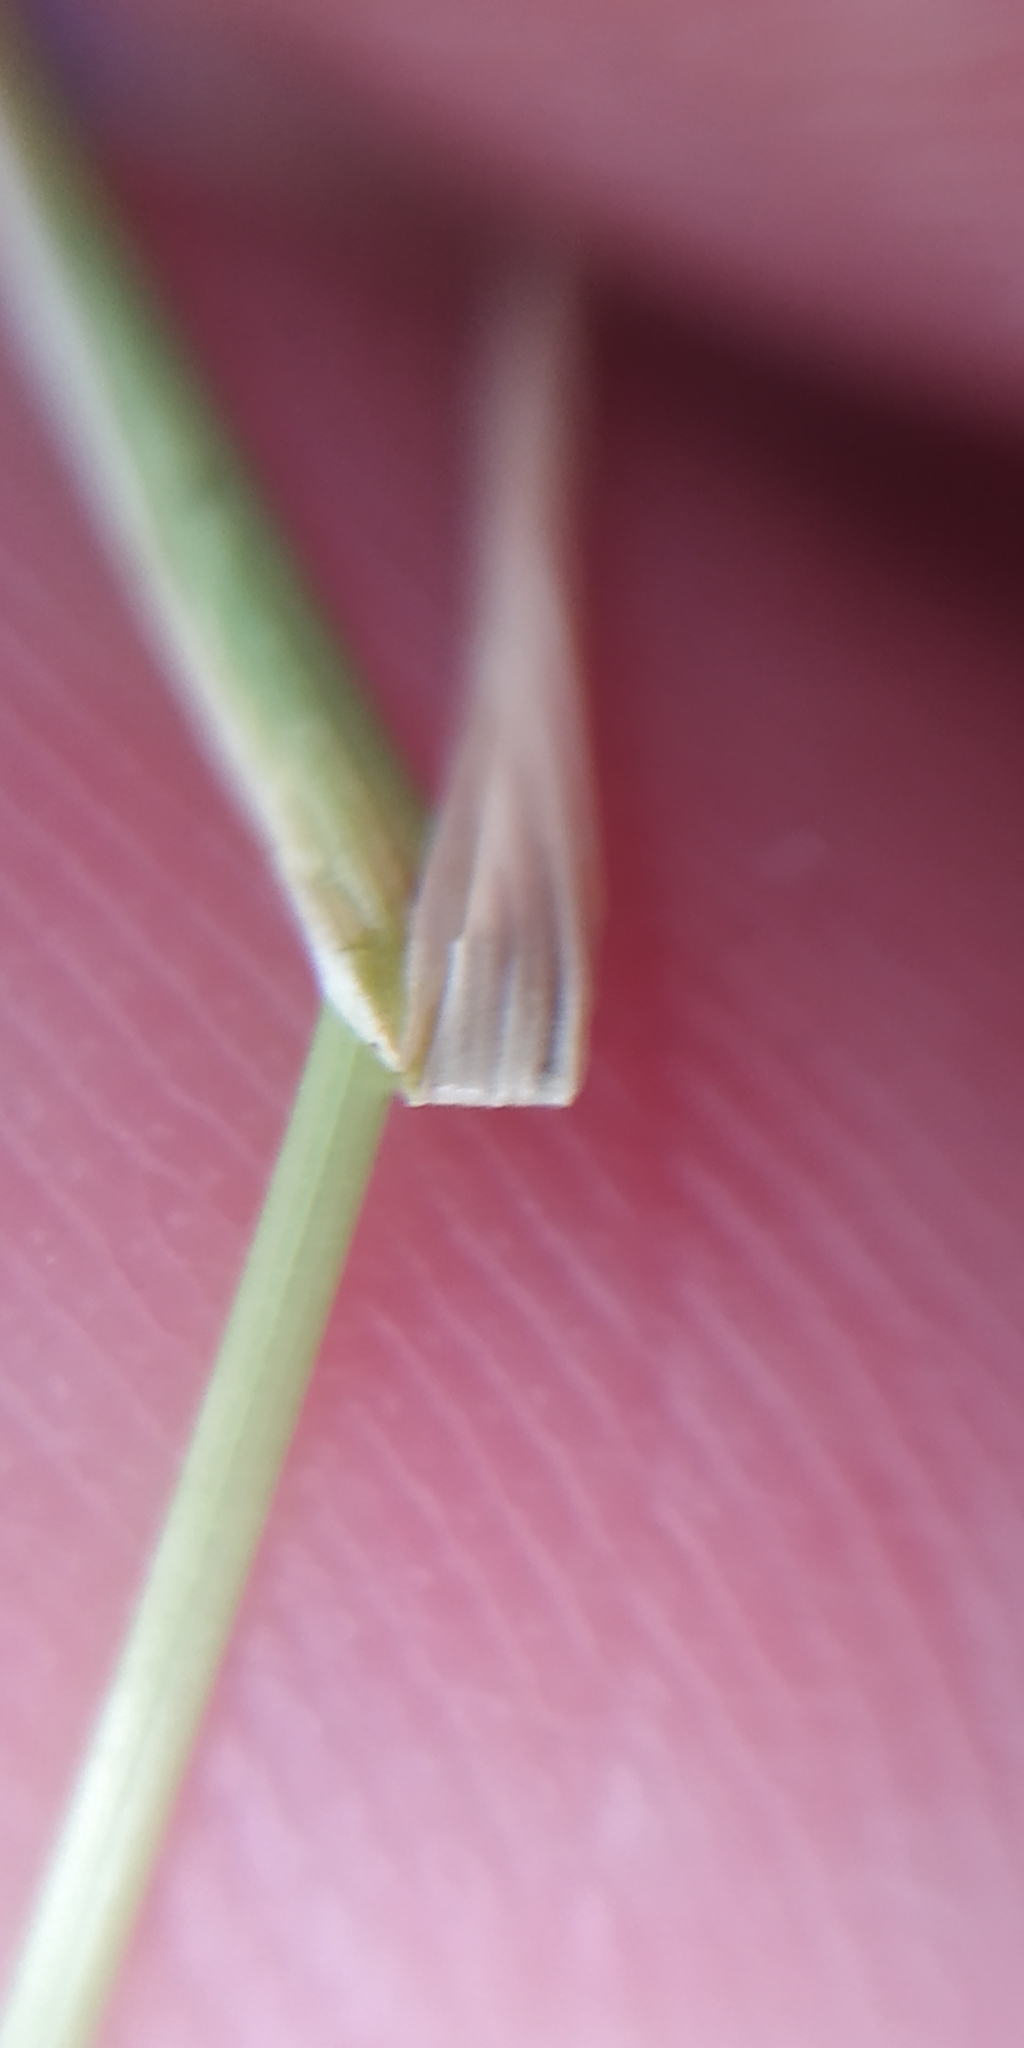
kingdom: Plantae
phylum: Tracheophyta
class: Liliopsida
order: Poales
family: Poaceae
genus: Festuca
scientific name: Festuca ovina
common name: Sheep fescue
